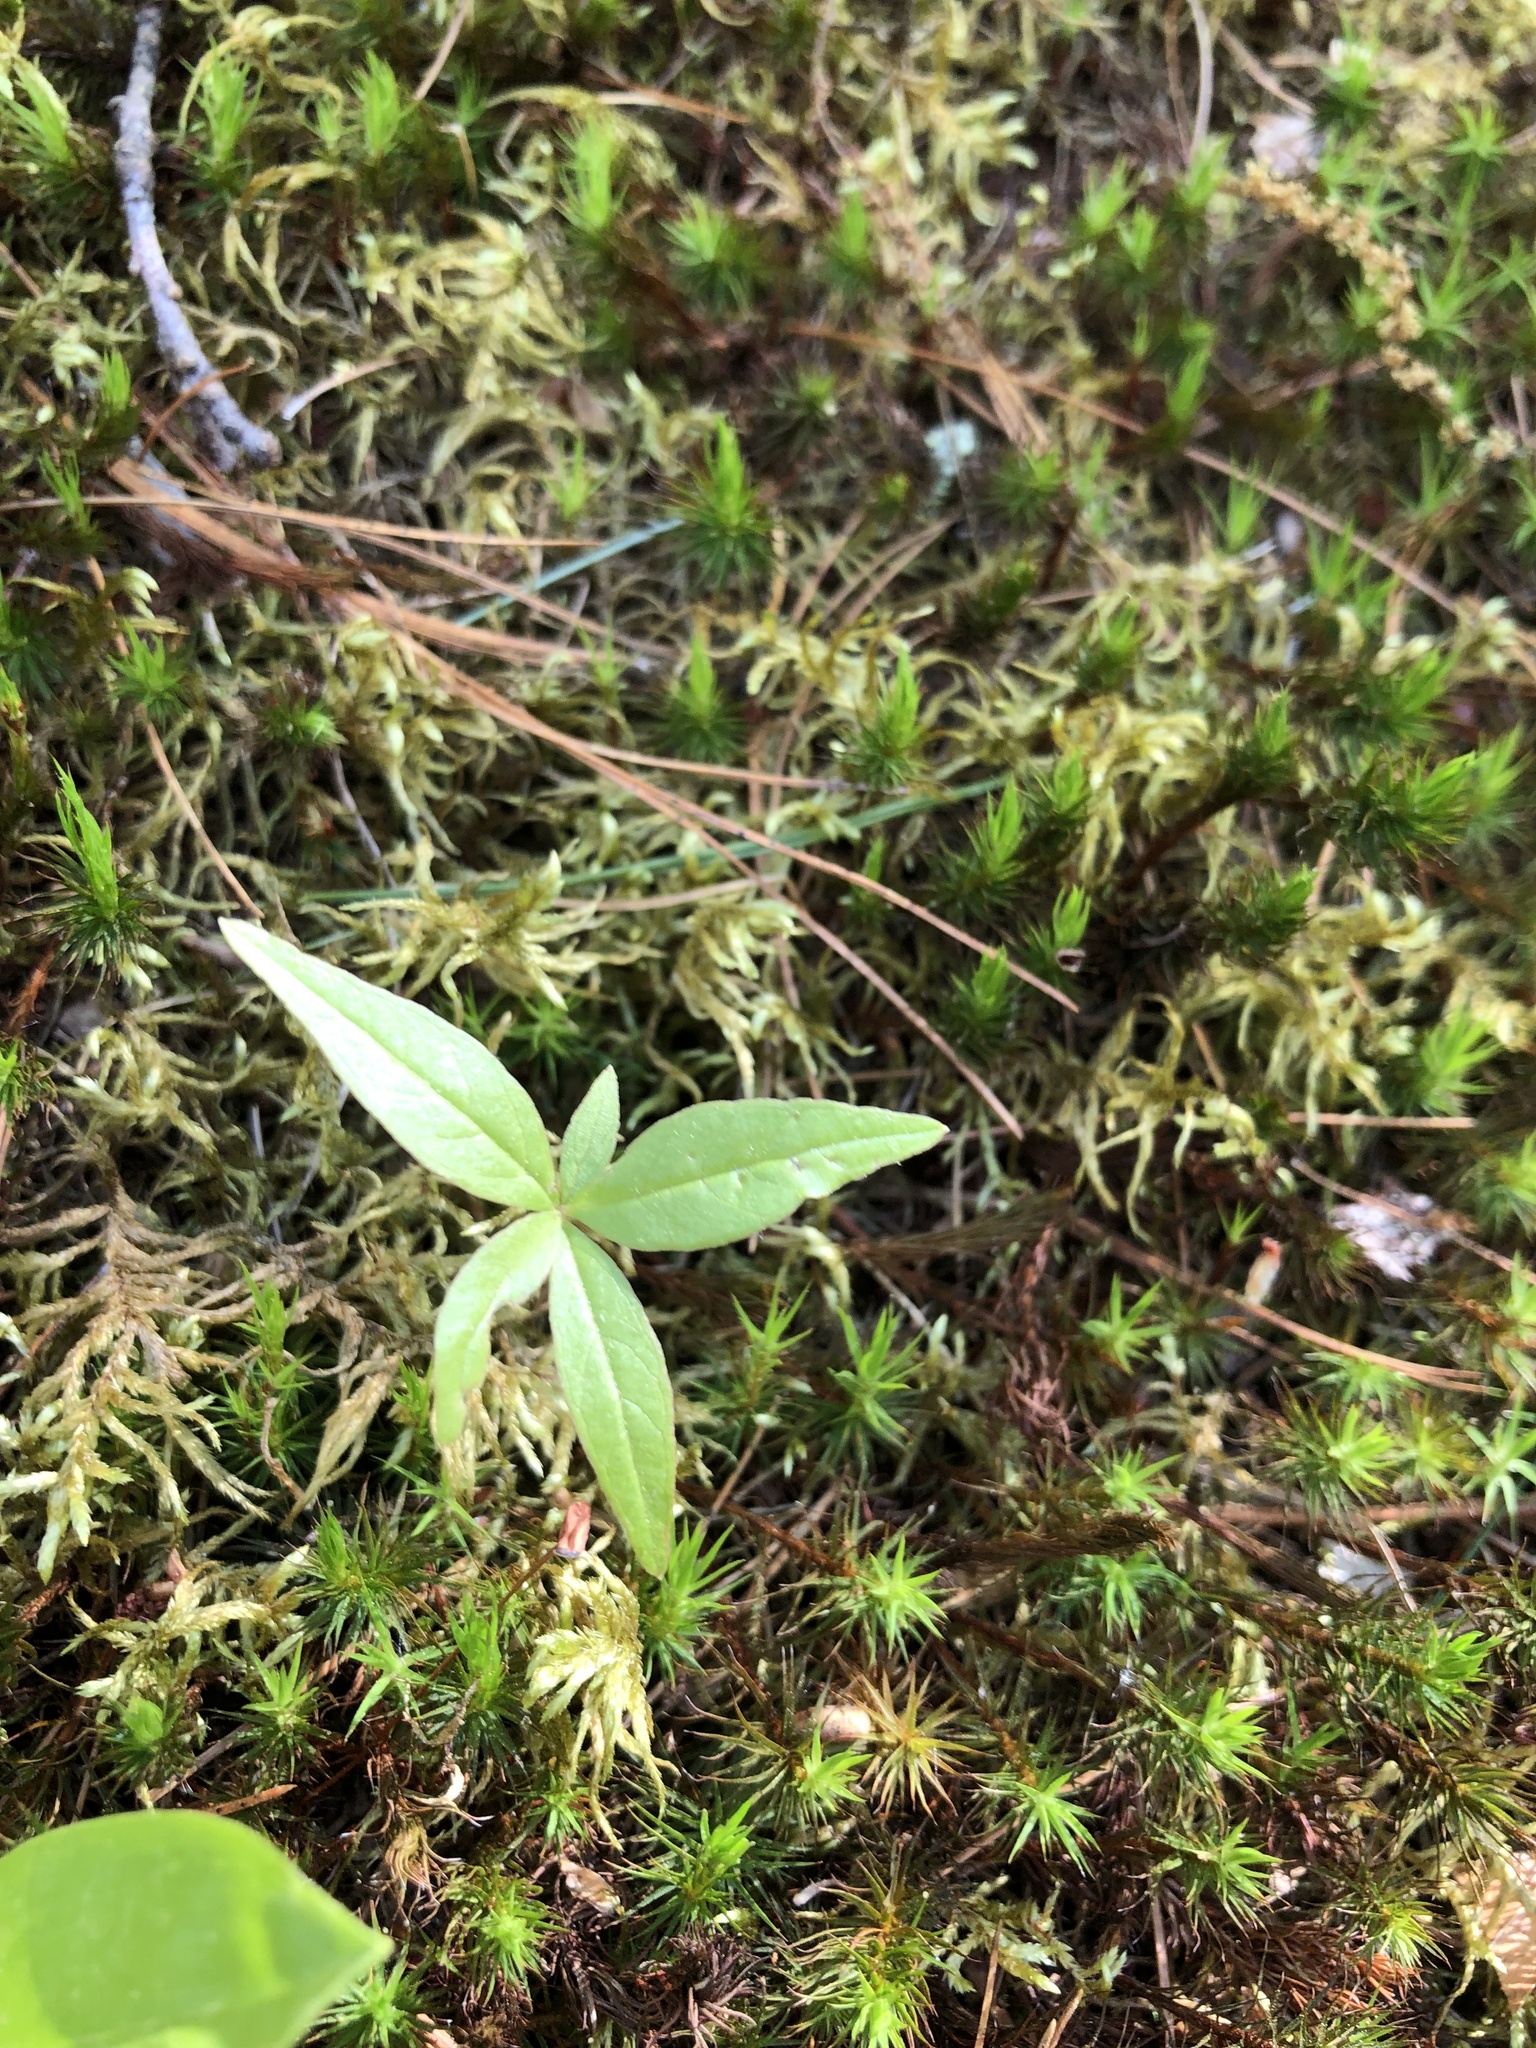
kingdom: Plantae
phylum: Tracheophyta
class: Magnoliopsida
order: Ericales
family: Primulaceae
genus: Lysimachia
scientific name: Lysimachia borealis
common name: American starflower
